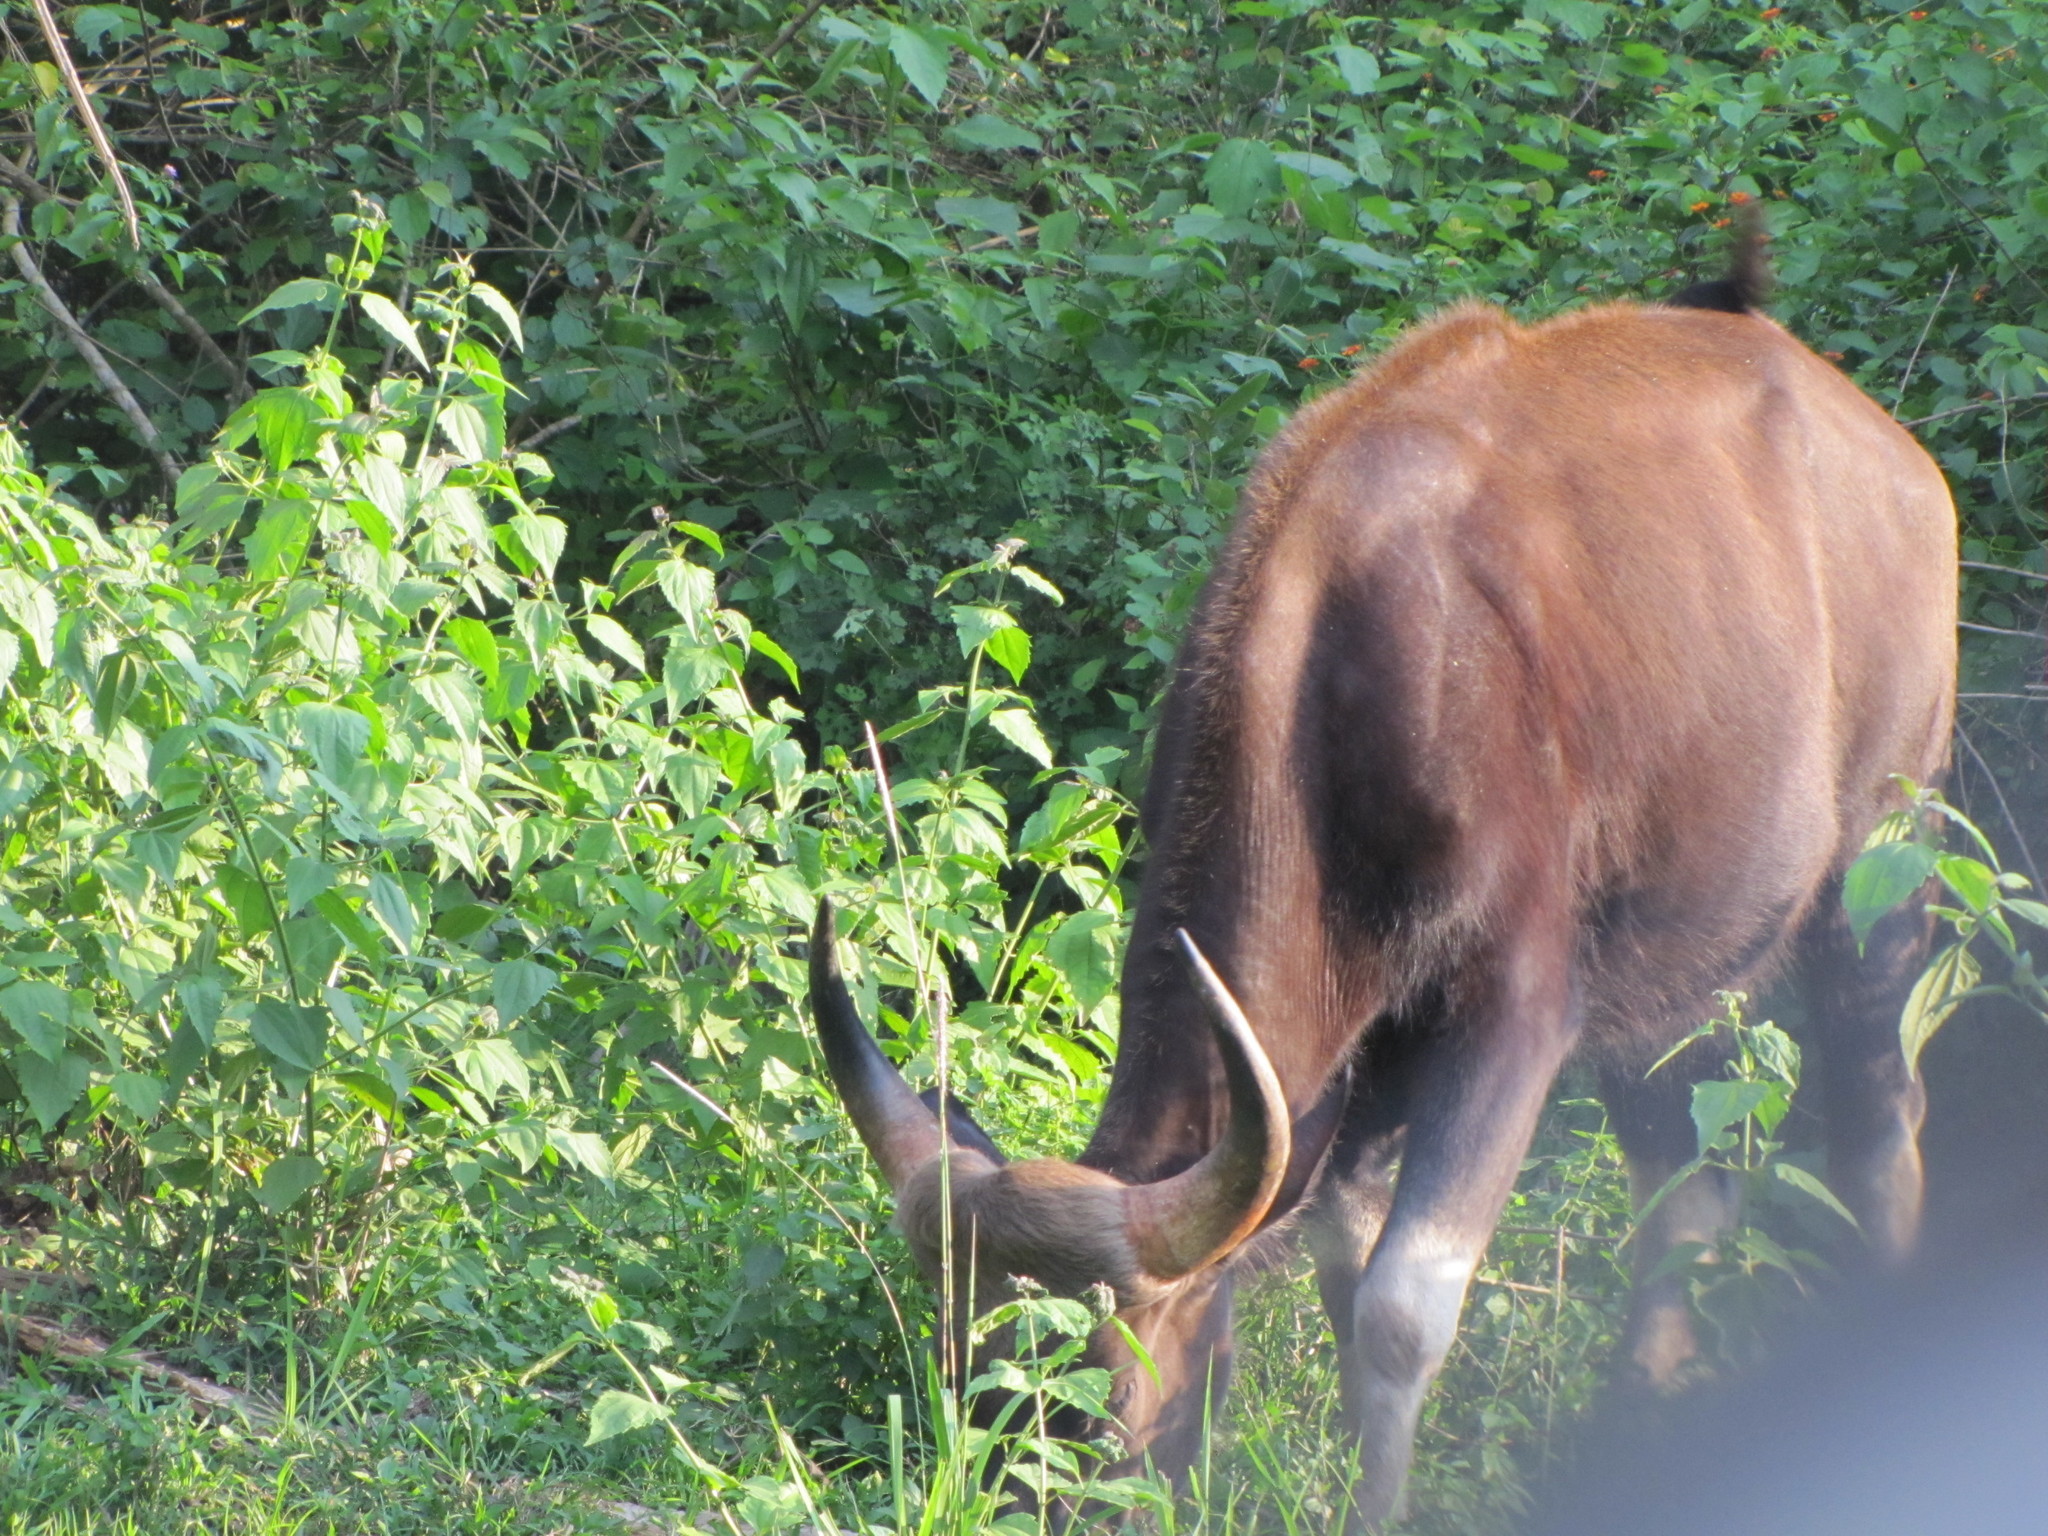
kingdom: Animalia
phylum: Chordata
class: Mammalia
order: Artiodactyla
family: Bovidae
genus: Bos
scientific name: Bos frontalis
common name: Gaur
